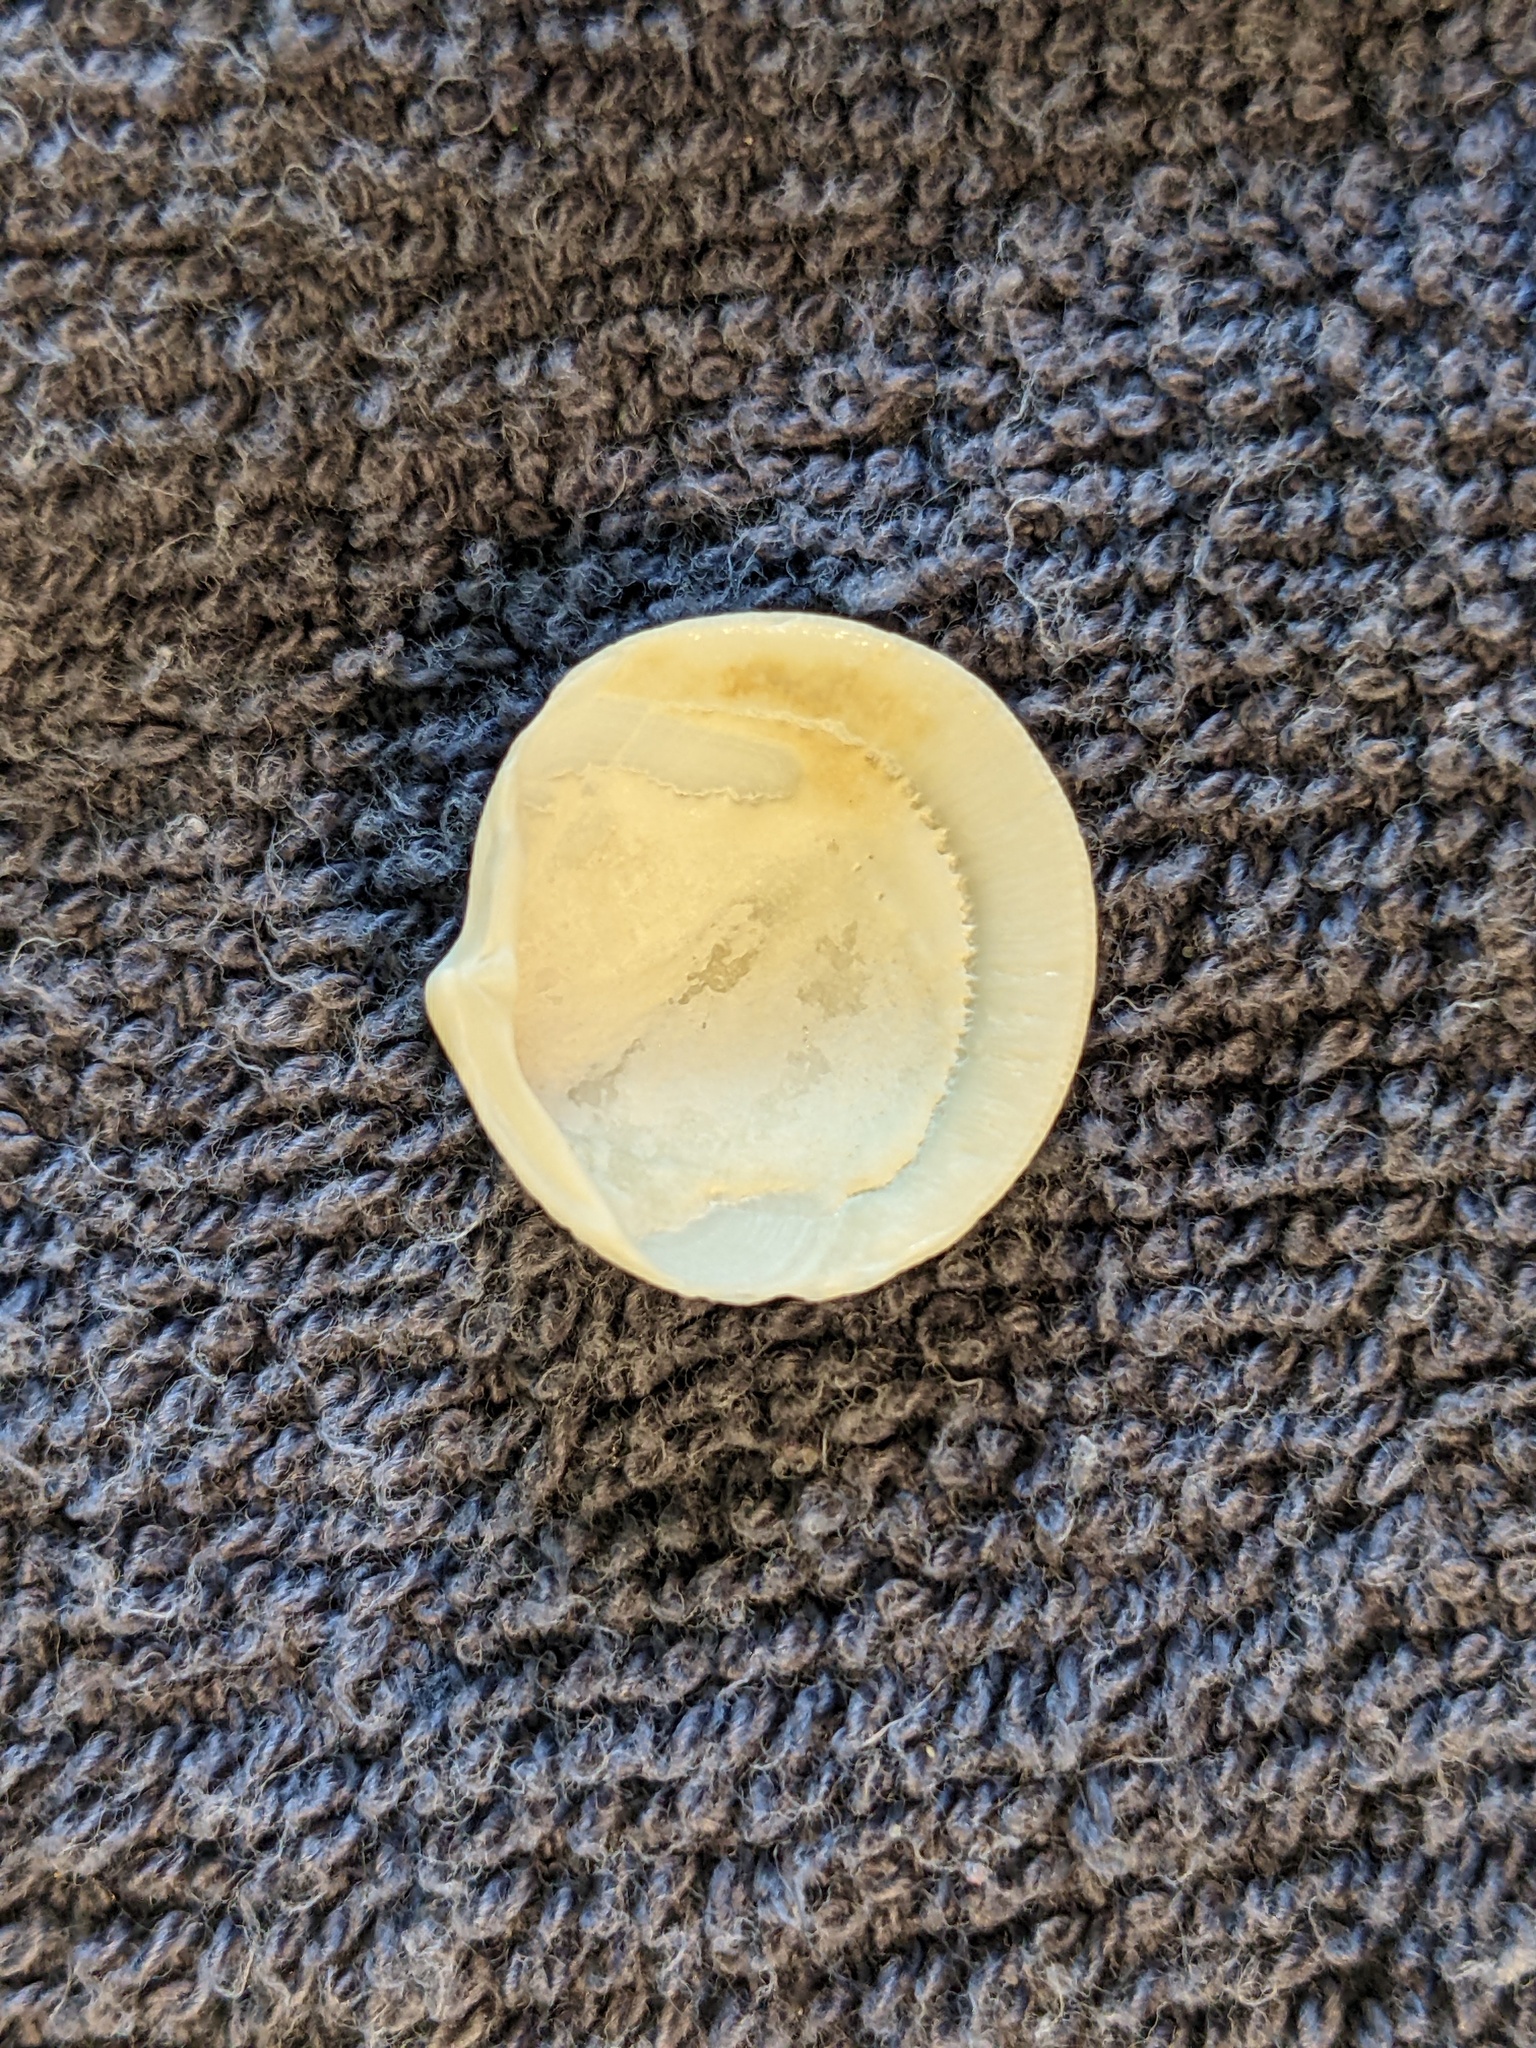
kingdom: Animalia
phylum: Mollusca
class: Bivalvia
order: Lucinida
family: Lucinidae
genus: Callucina
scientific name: Callucina keenae
